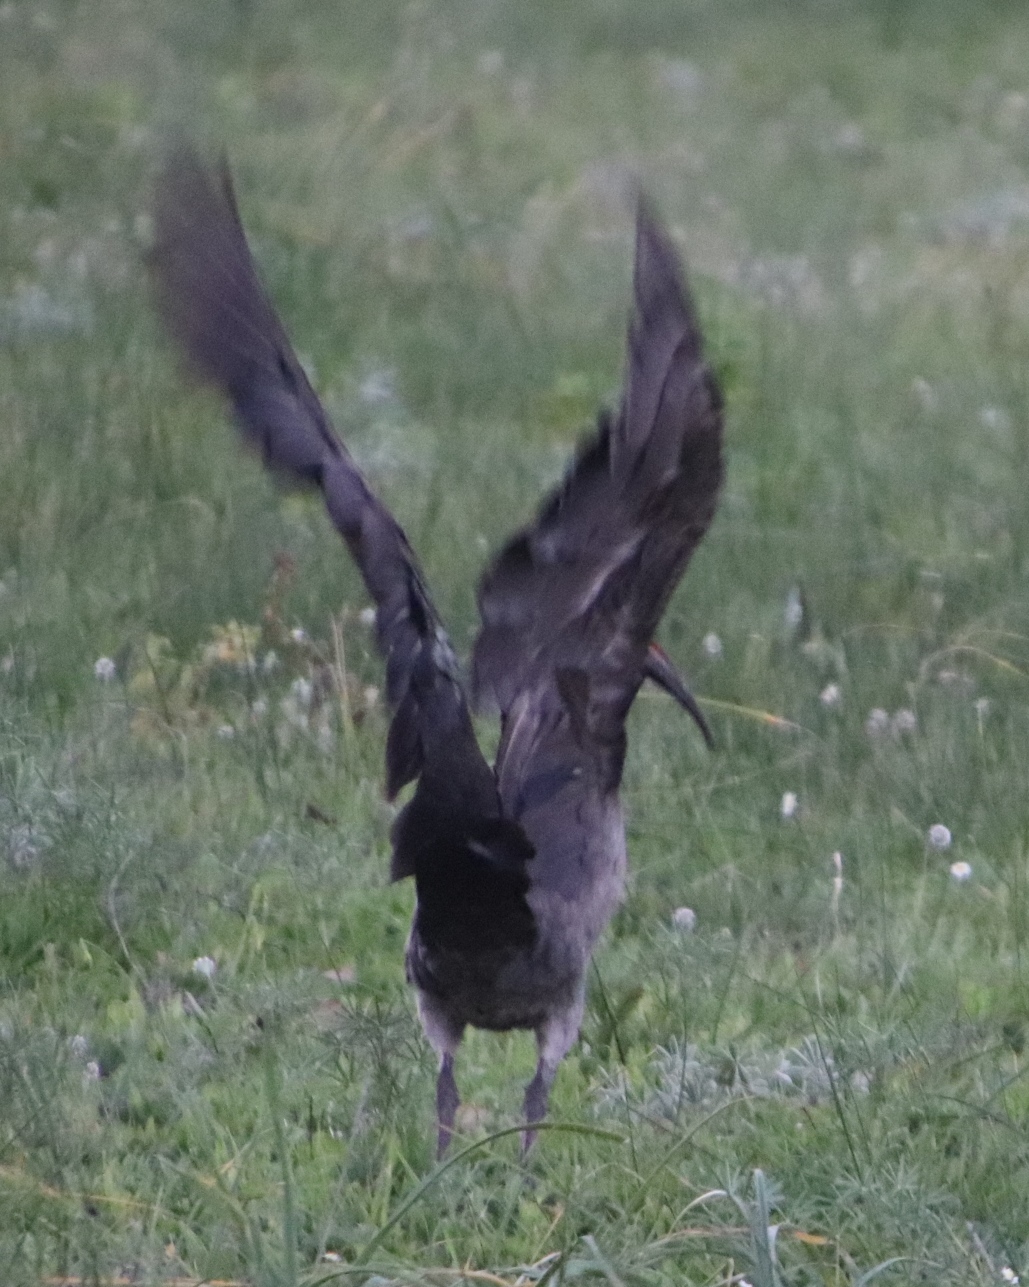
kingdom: Animalia
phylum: Chordata
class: Aves
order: Pelecaniformes
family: Threskiornithidae
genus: Bostrychia
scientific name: Bostrychia hagedash
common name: Hadada ibis
